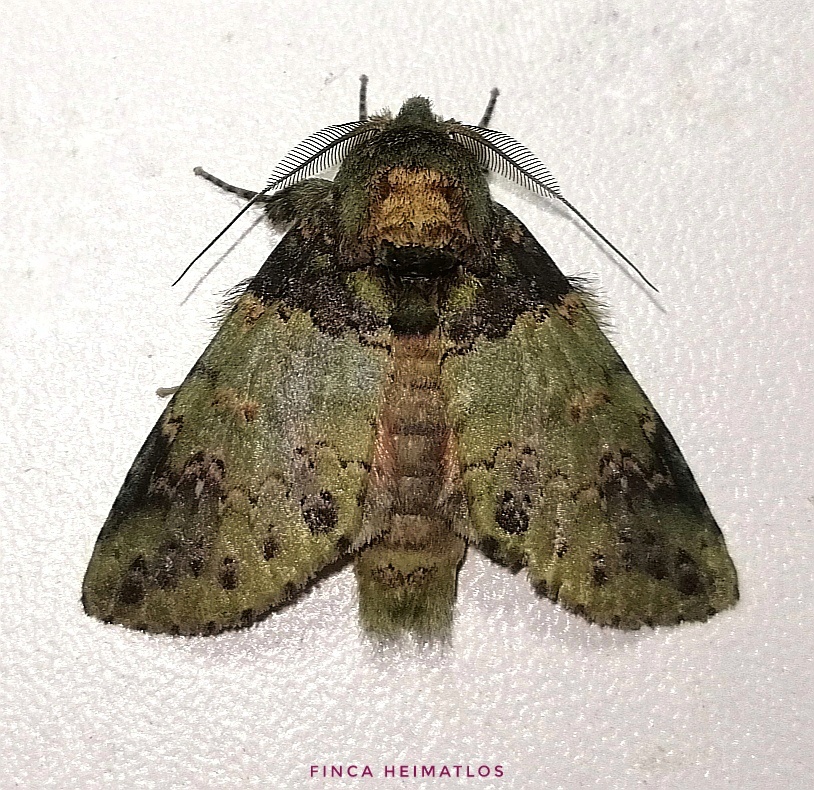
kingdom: Animalia
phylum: Arthropoda
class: Insecta
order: Lepidoptera
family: Notodontidae
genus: Disphragis
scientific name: Disphragis meretricia
